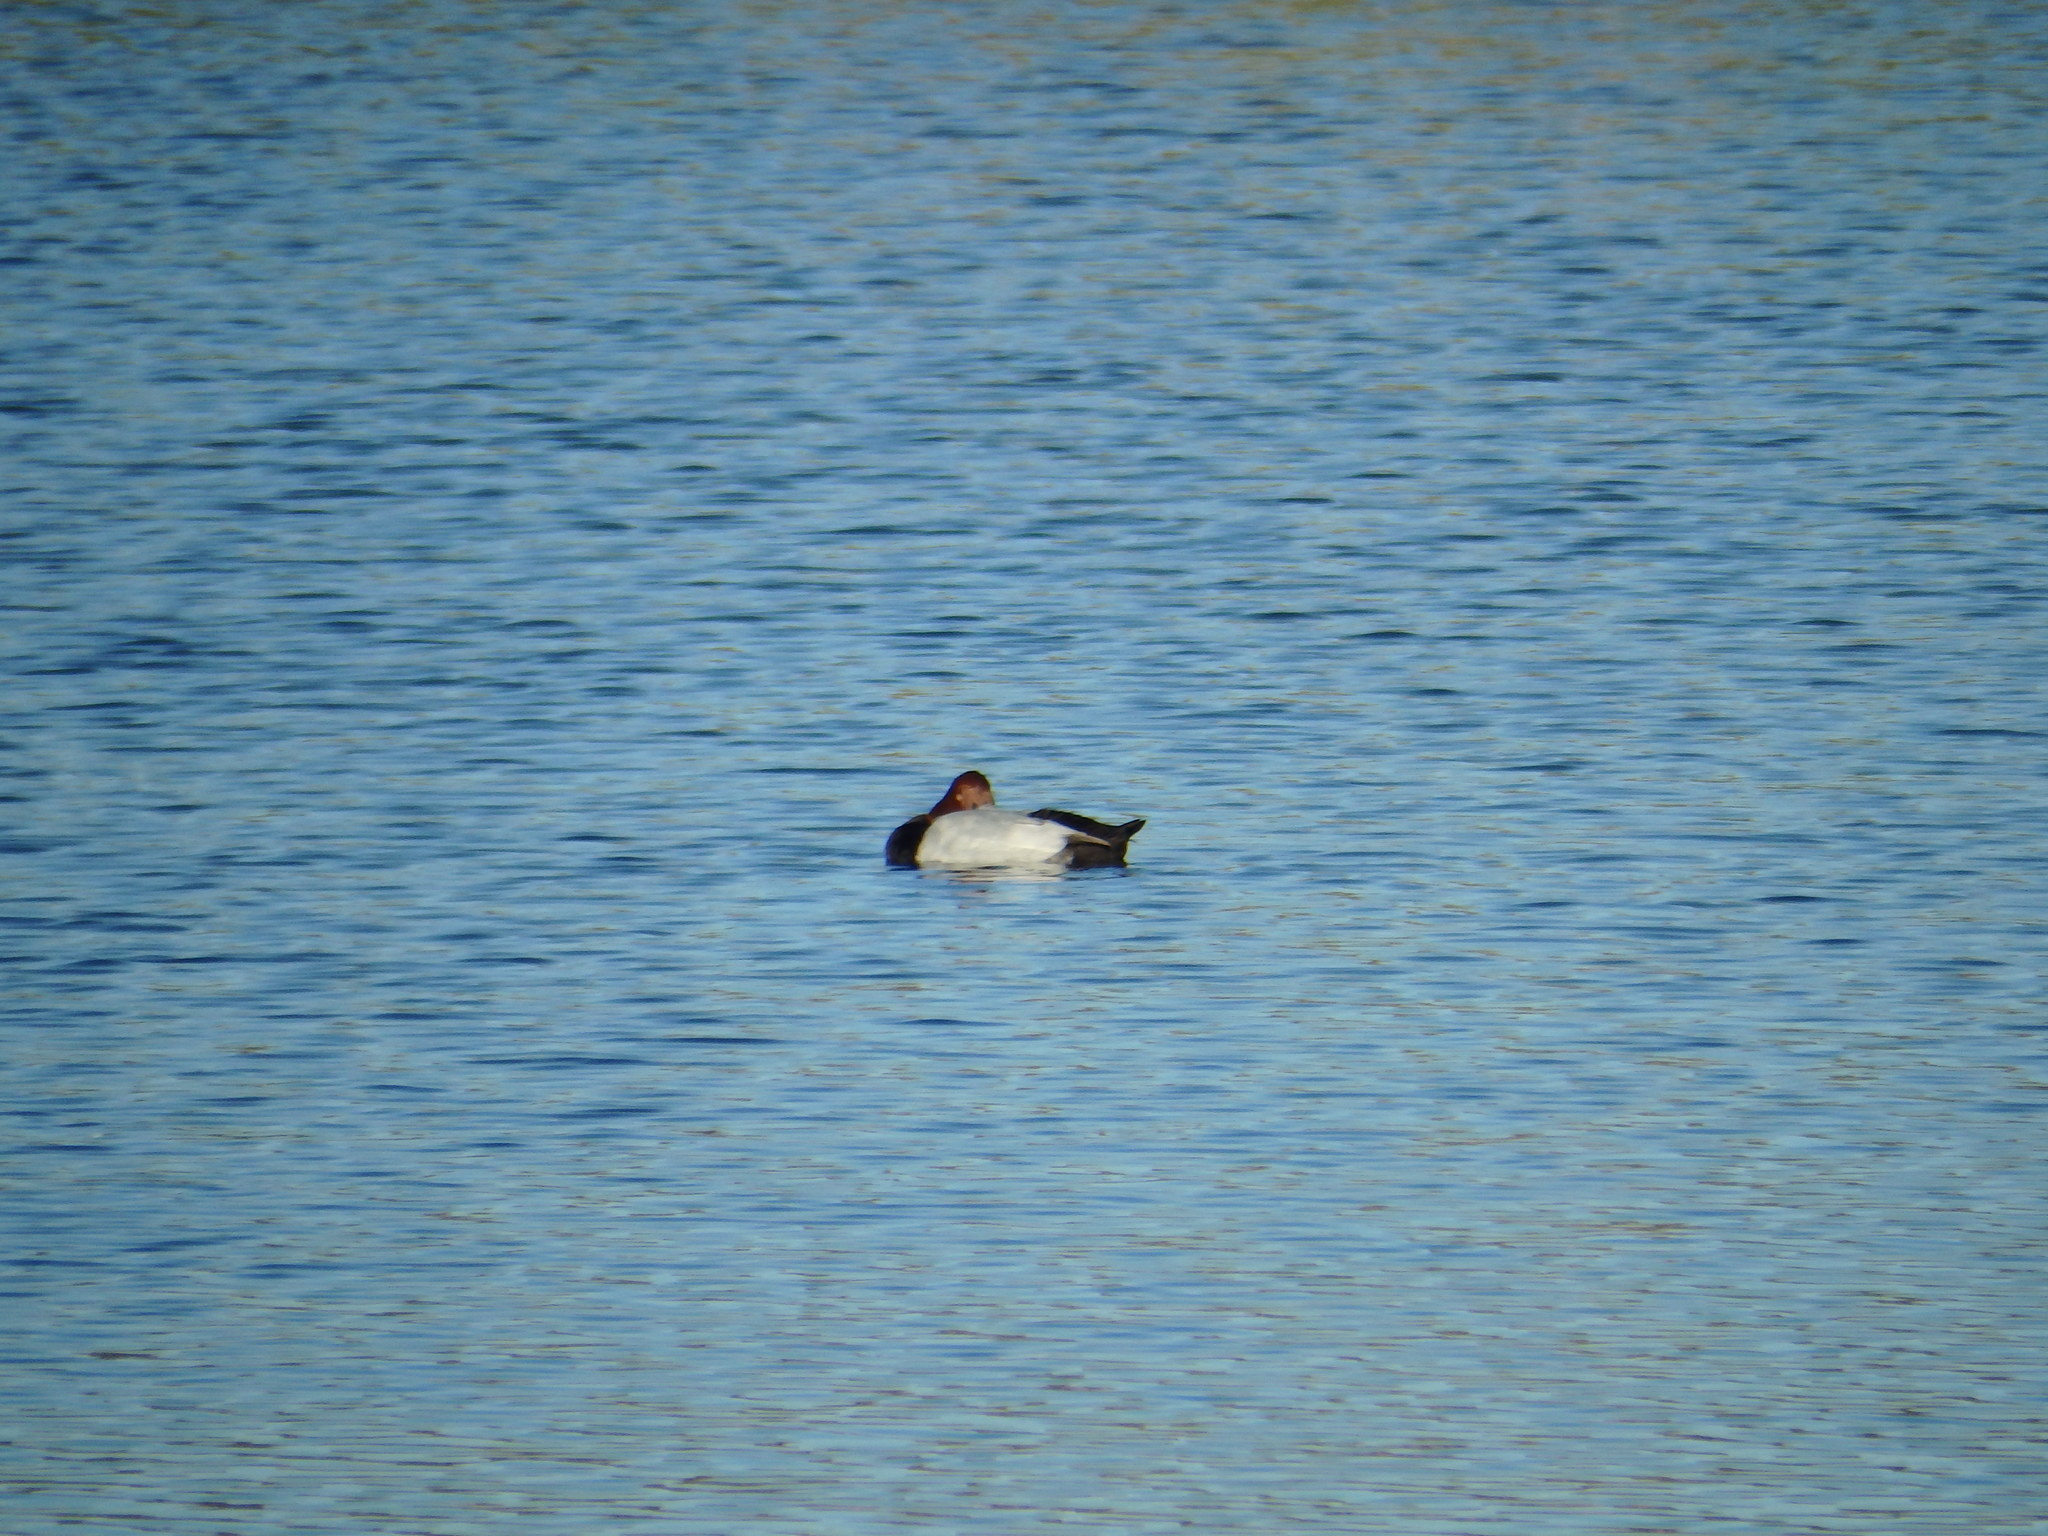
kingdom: Animalia
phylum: Chordata
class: Aves
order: Anseriformes
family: Anatidae
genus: Aythya
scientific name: Aythya ferina
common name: Common pochard
